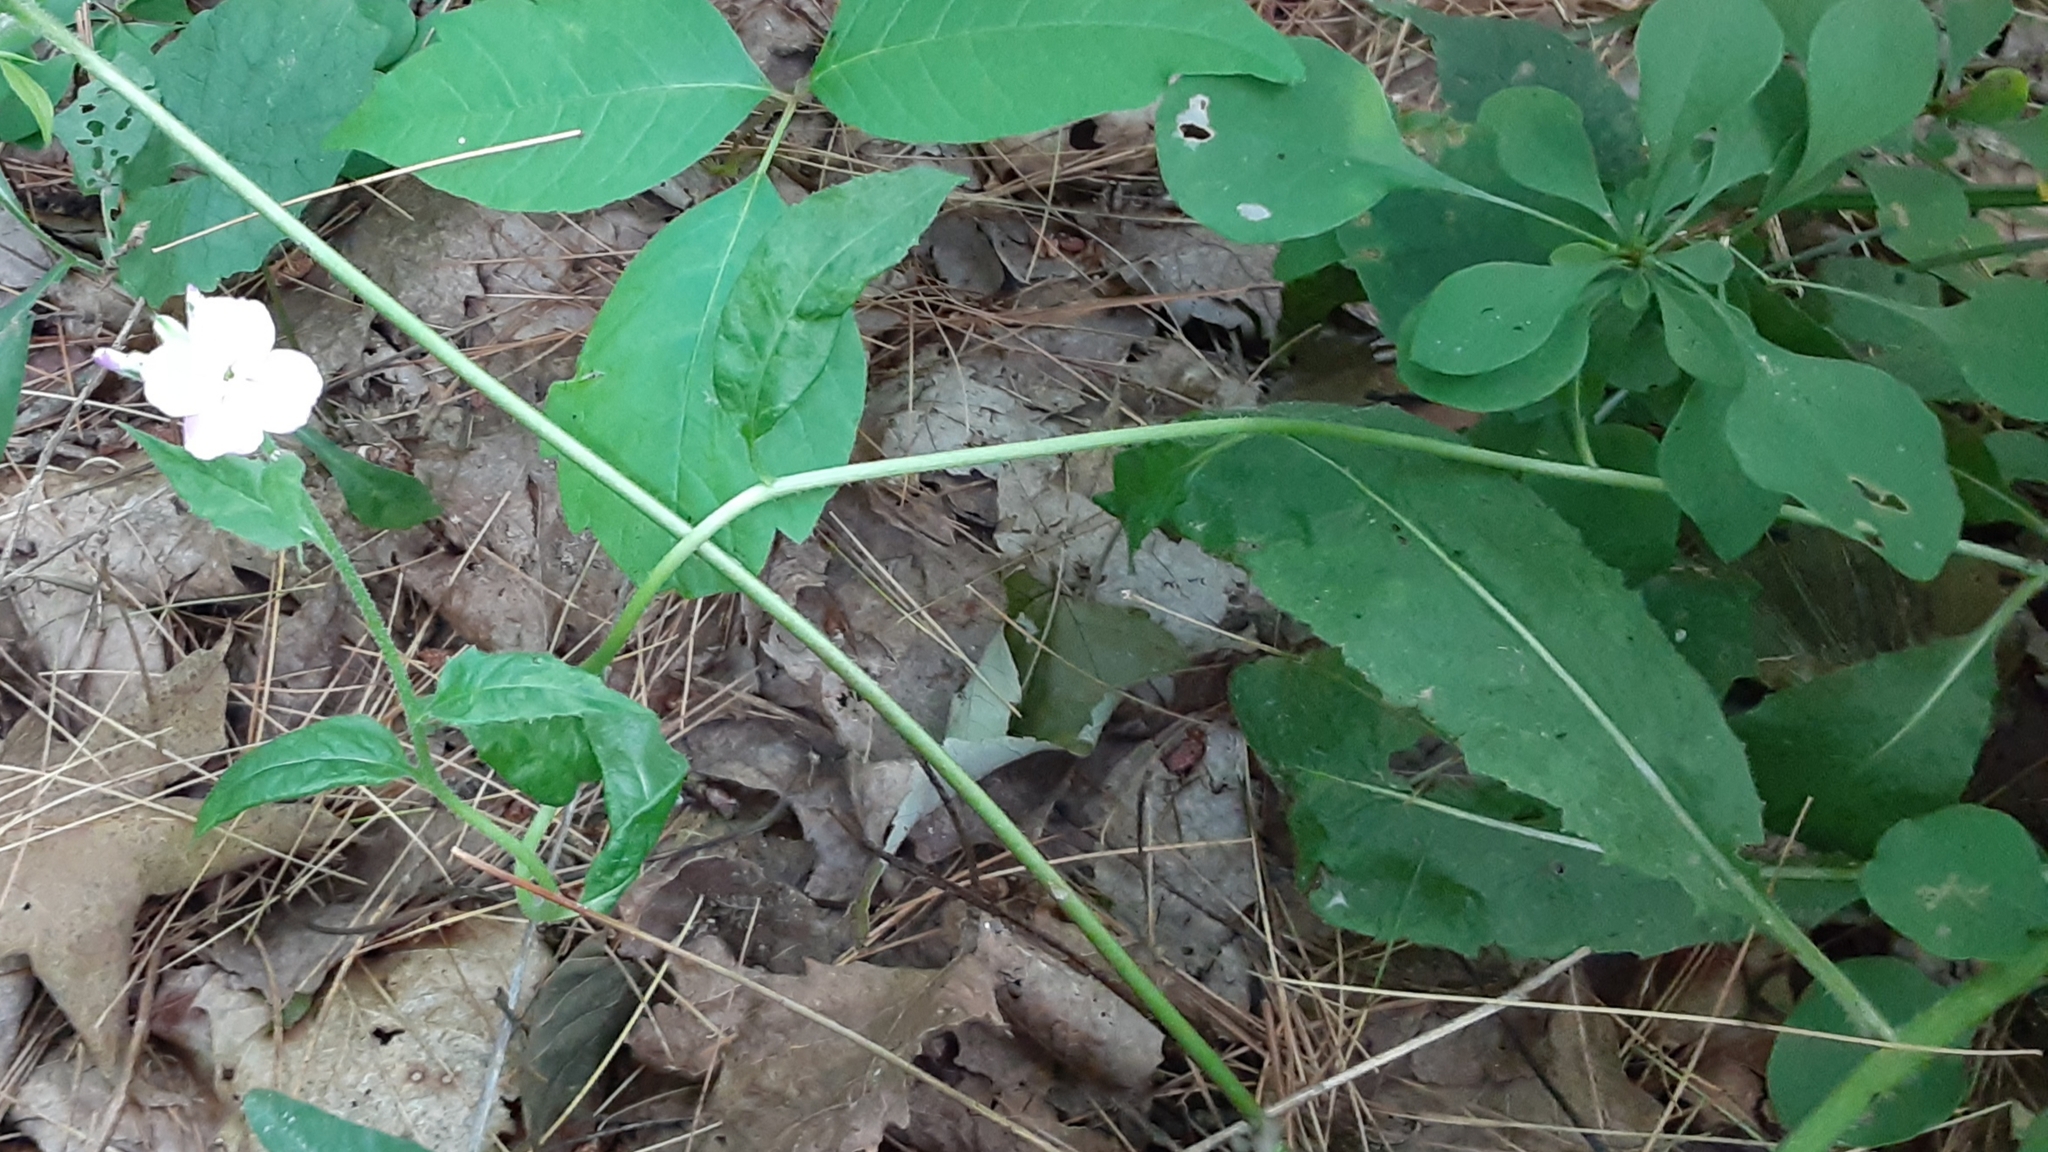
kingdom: Plantae
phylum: Tracheophyta
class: Magnoliopsida
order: Brassicales
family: Brassicaceae
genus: Hesperis
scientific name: Hesperis matronalis
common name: Dame's-violet
